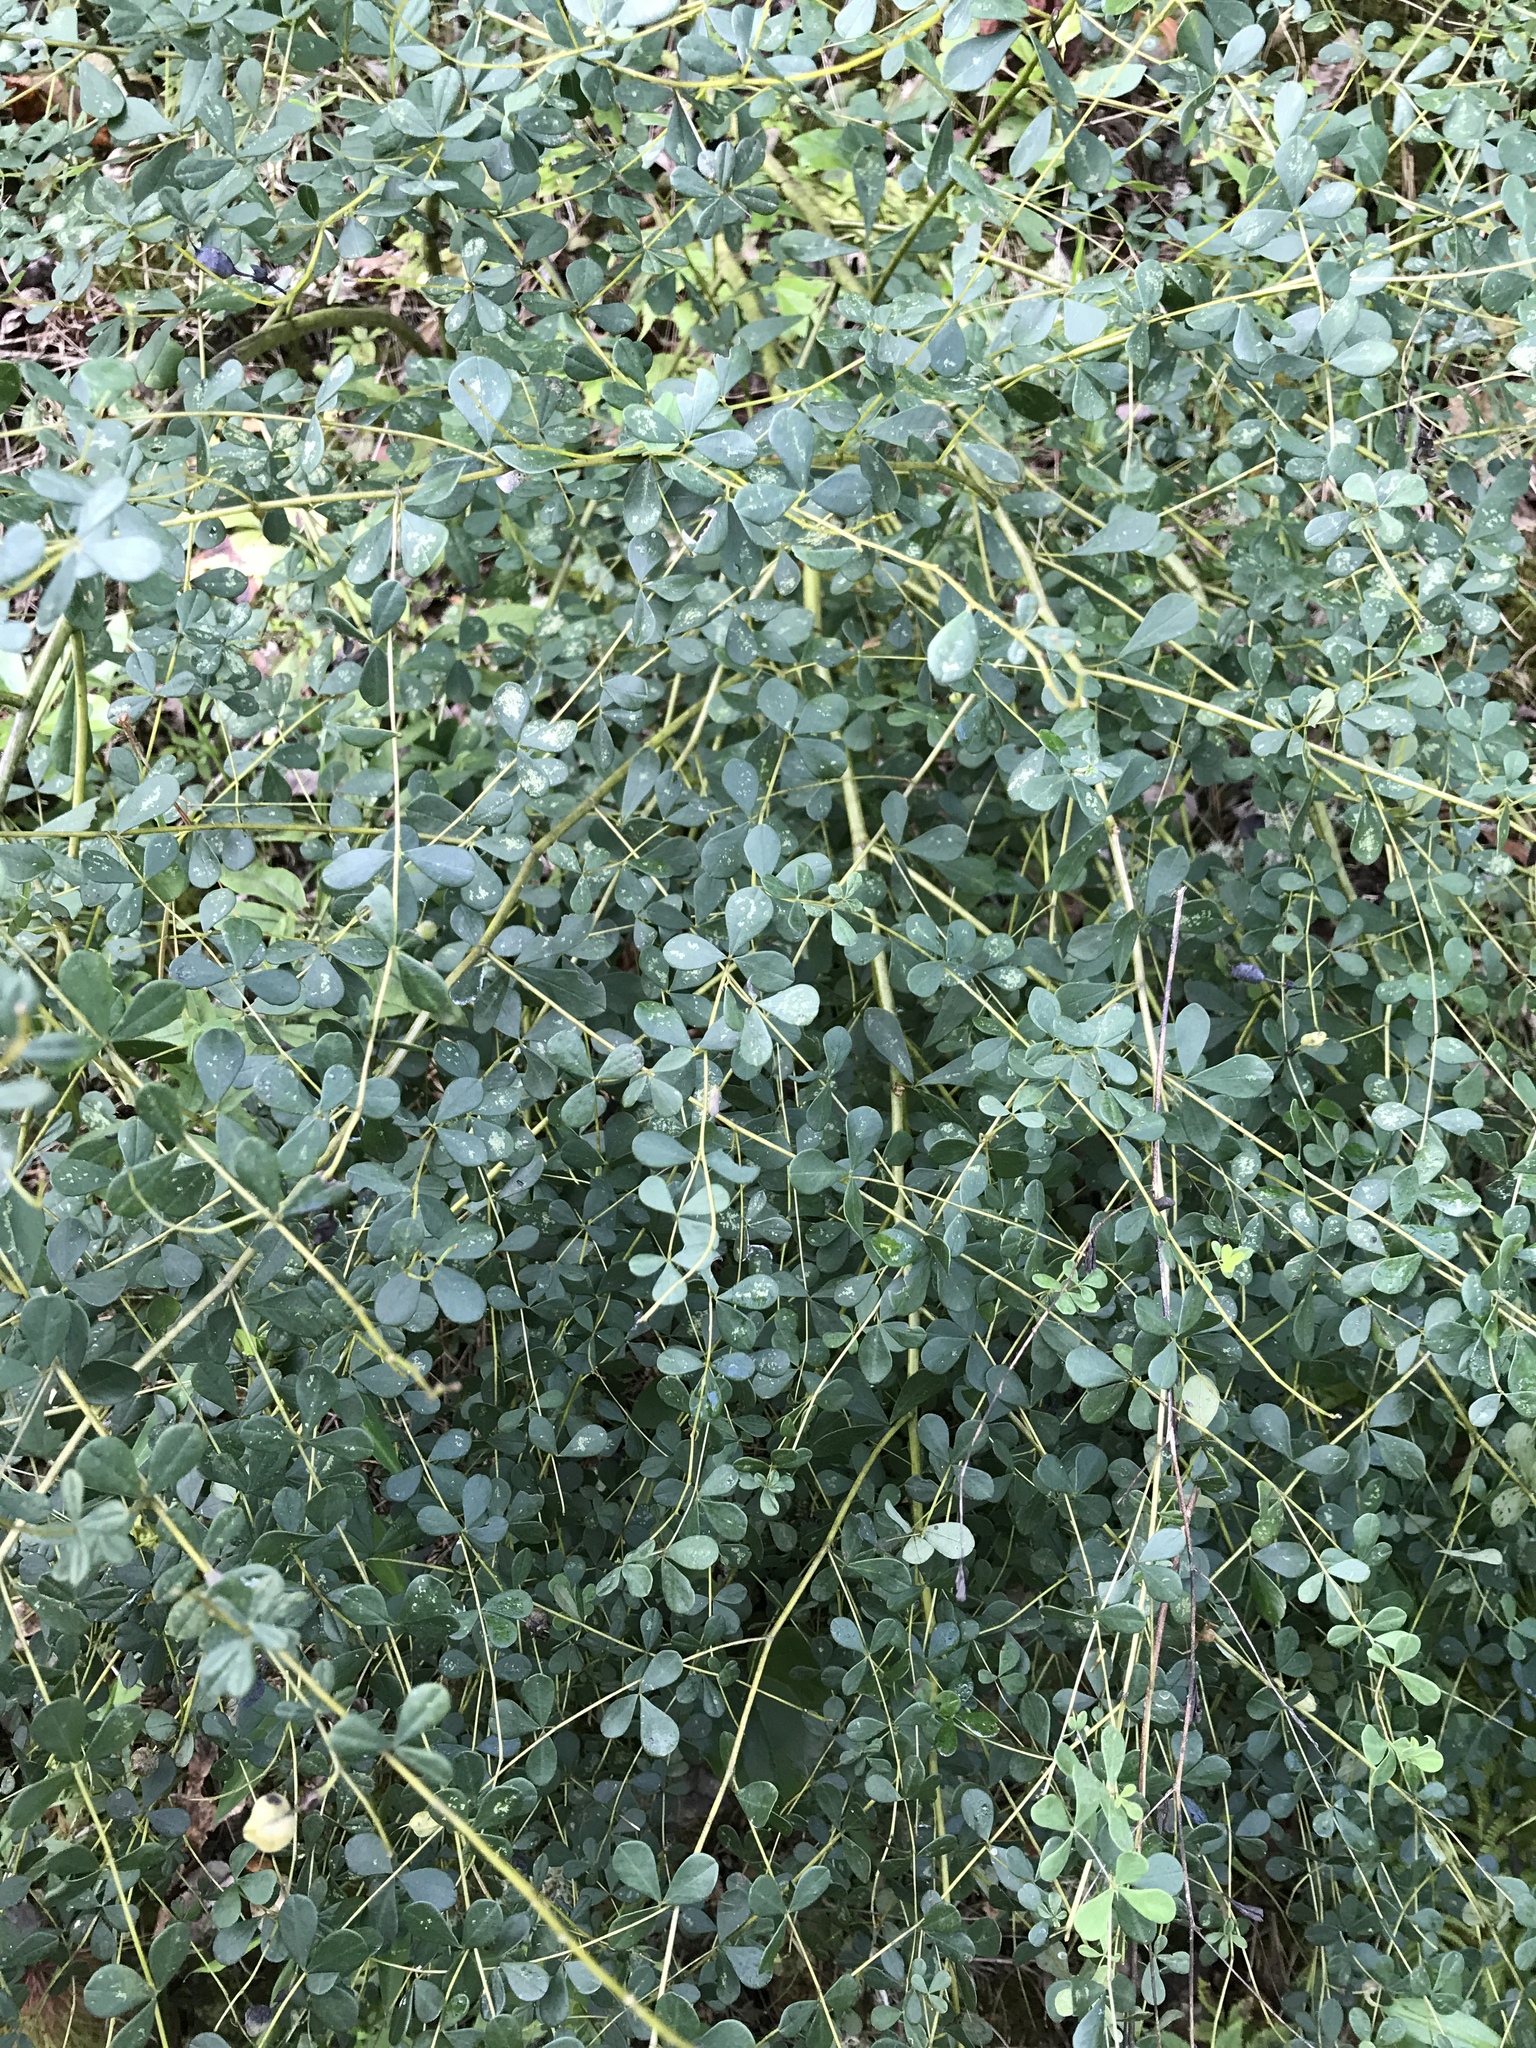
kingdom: Plantae
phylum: Tracheophyta
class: Magnoliopsida
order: Fabales
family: Fabaceae
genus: Baptisia
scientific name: Baptisia tinctoria
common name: Wild indigo
